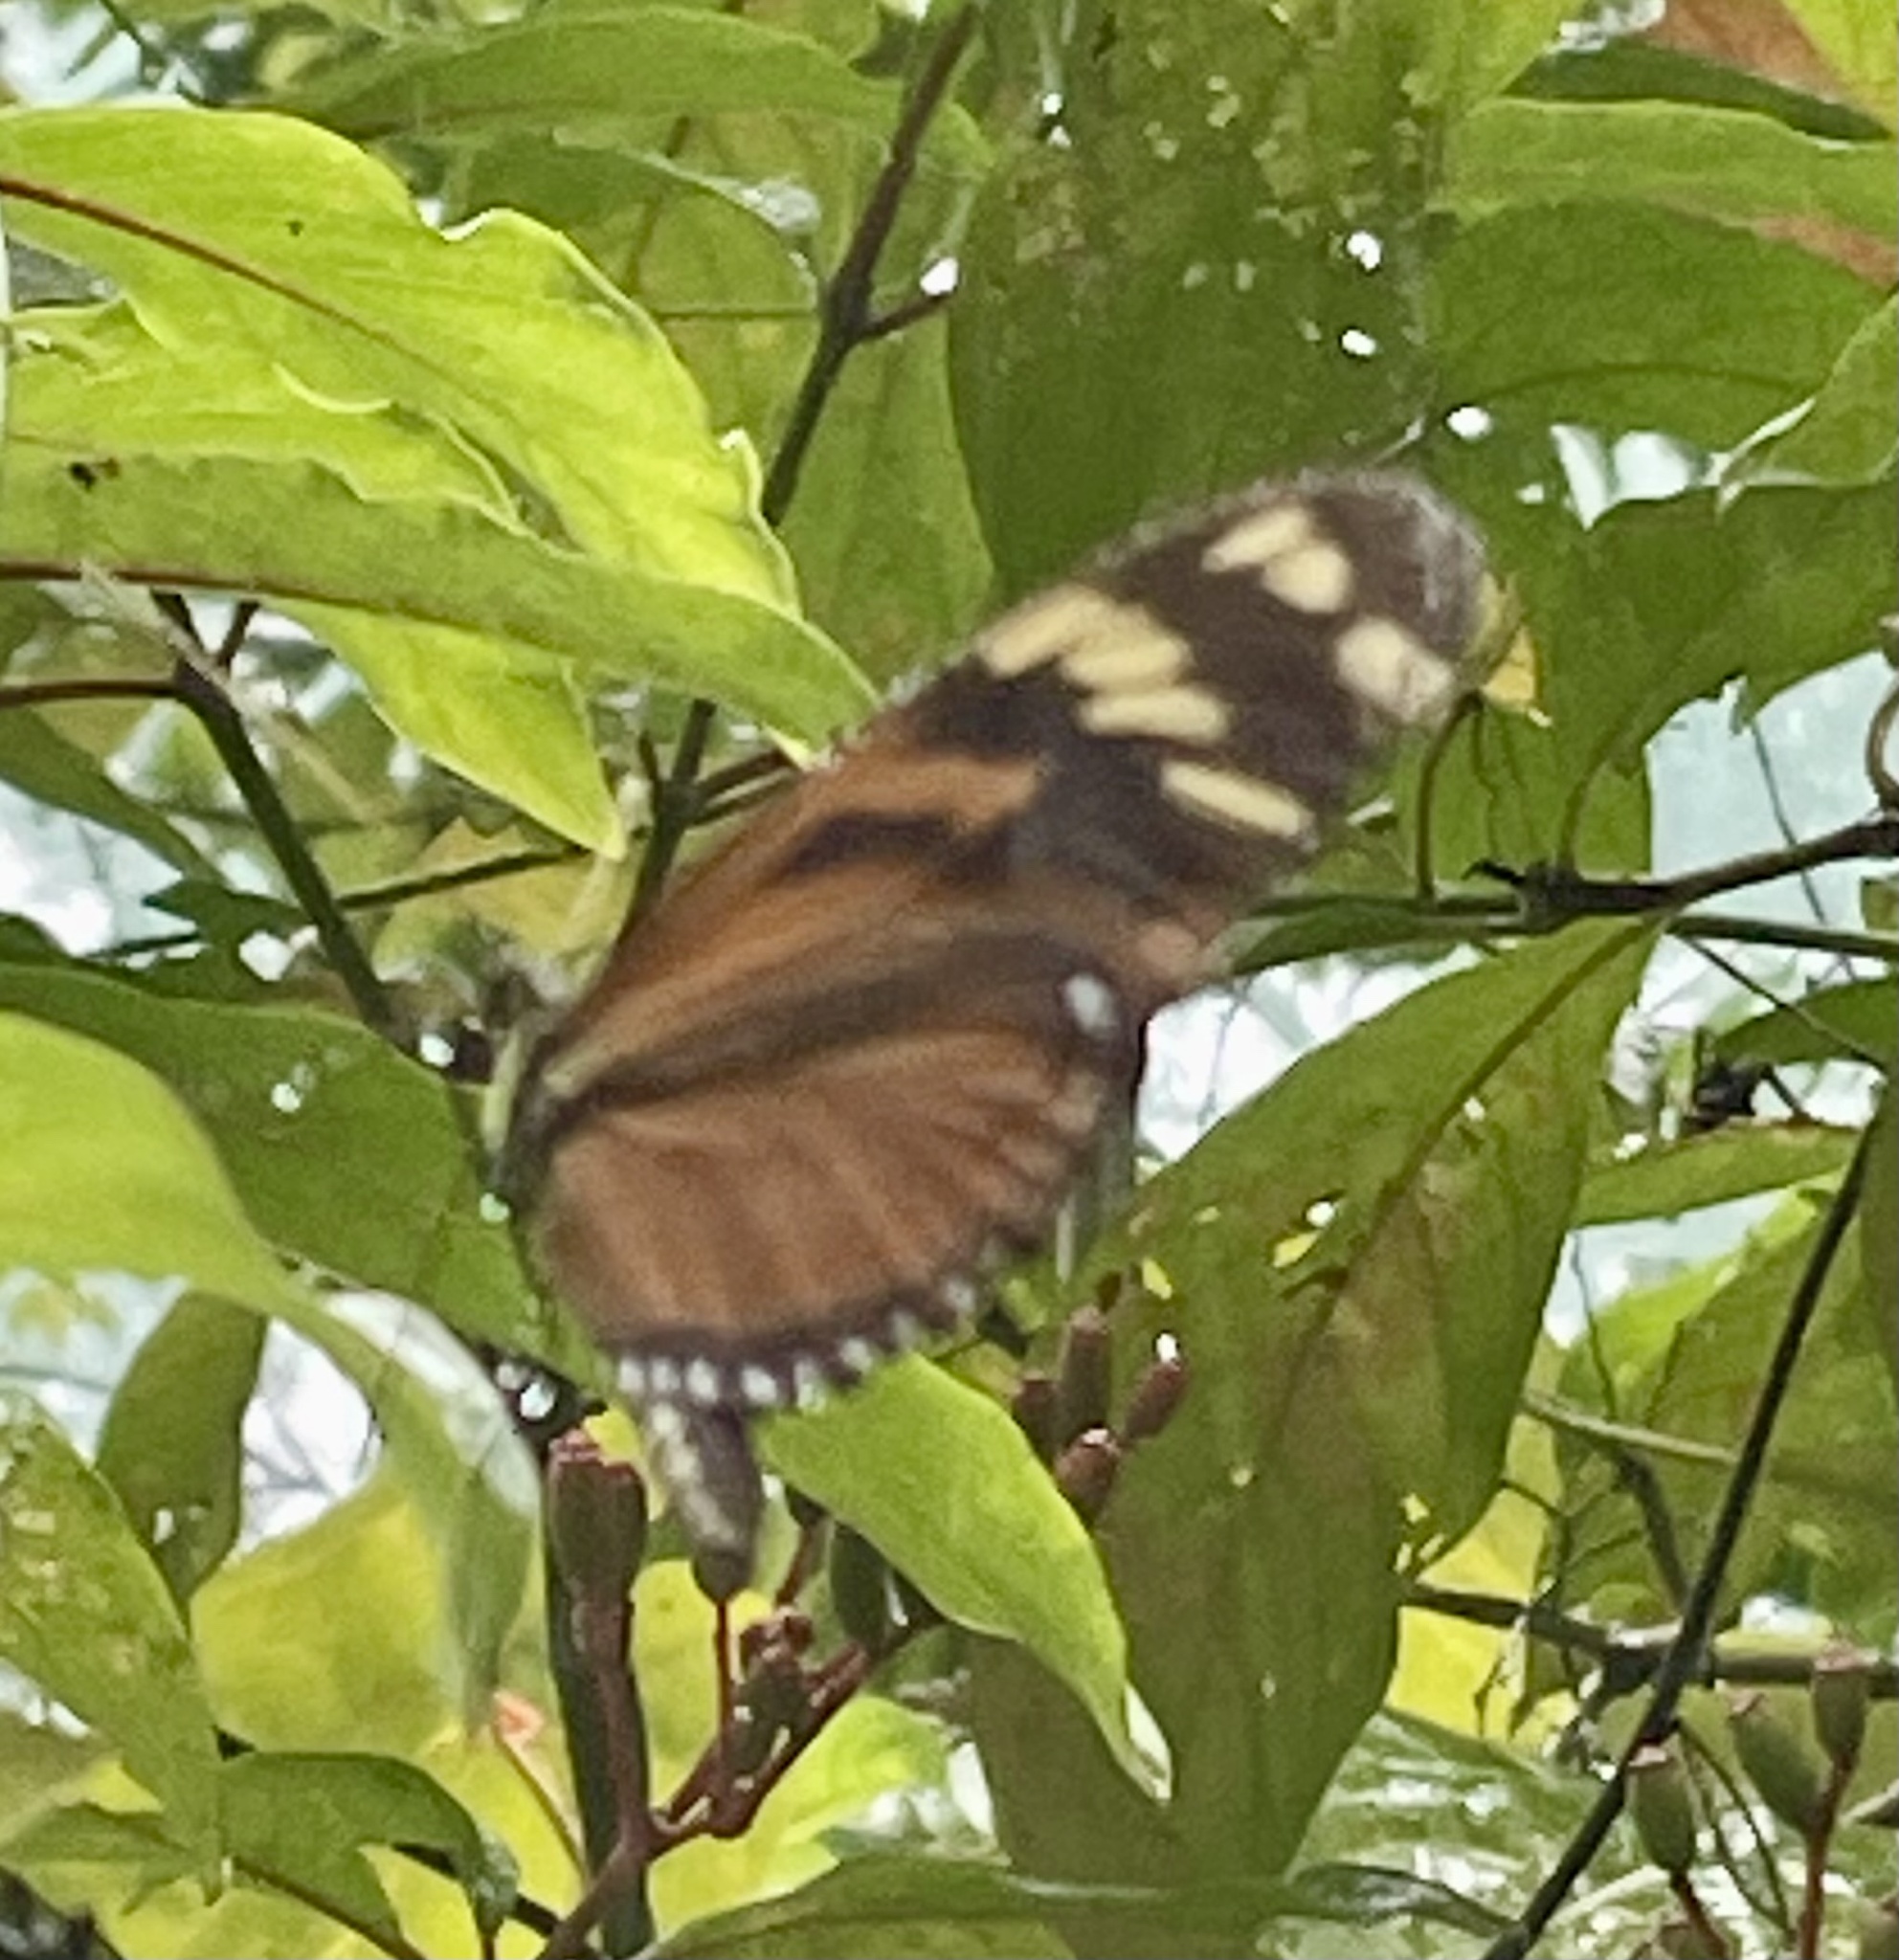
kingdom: Animalia
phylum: Arthropoda
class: Insecta
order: Lepidoptera
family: Nymphalidae
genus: Heliconius
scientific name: Heliconius ismenius
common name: Ismenius tiger
